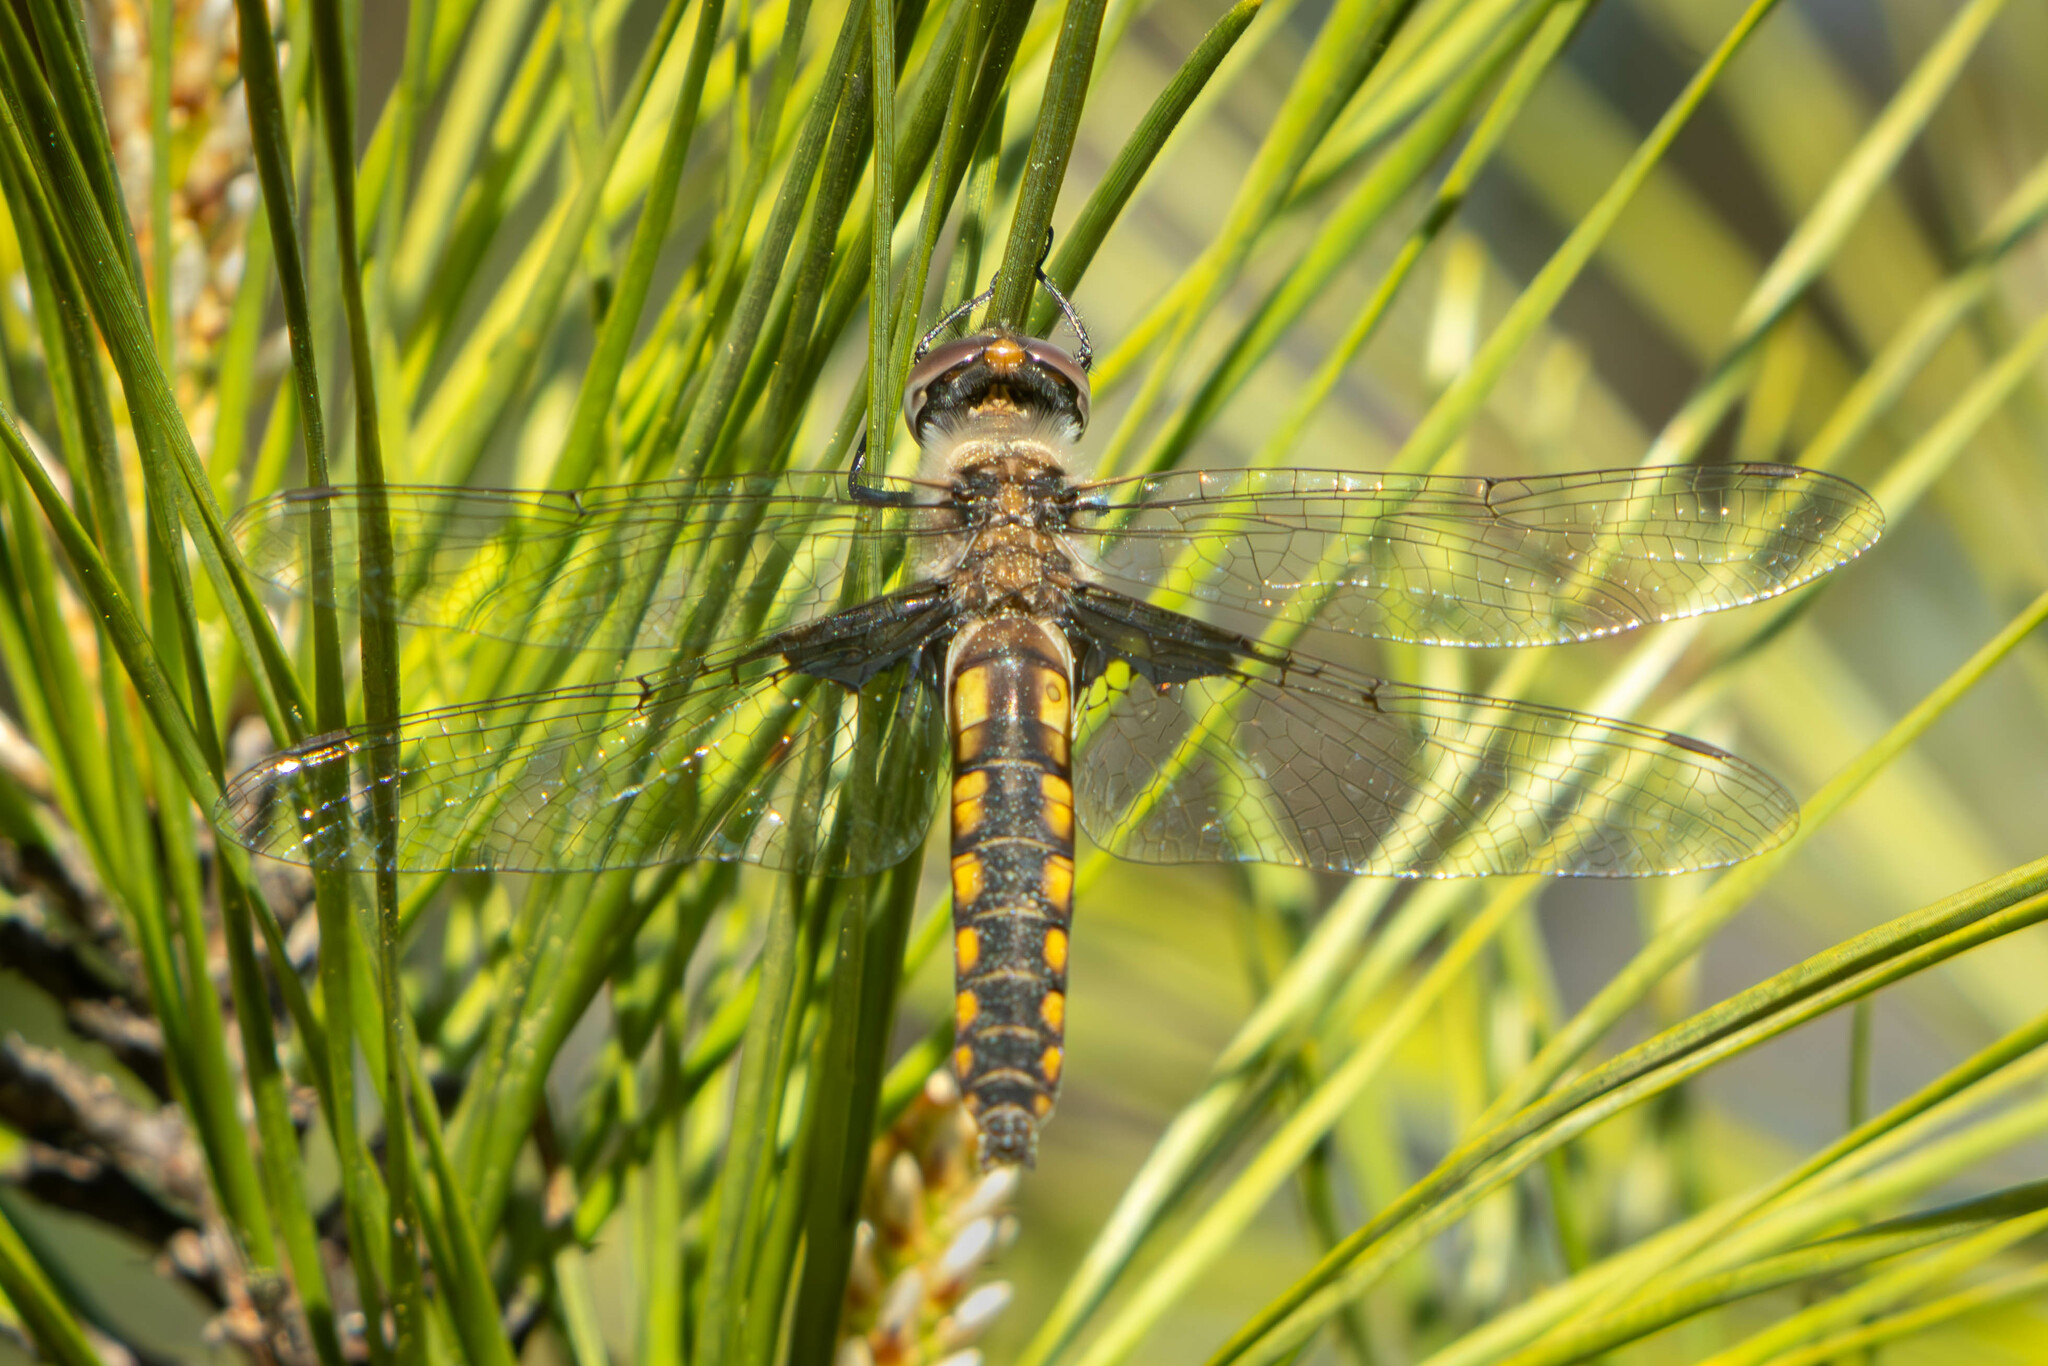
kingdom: Animalia
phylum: Arthropoda
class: Insecta
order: Odonata
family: Corduliidae
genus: Epitheca
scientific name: Epitheca cynosura
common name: Common baskettail
